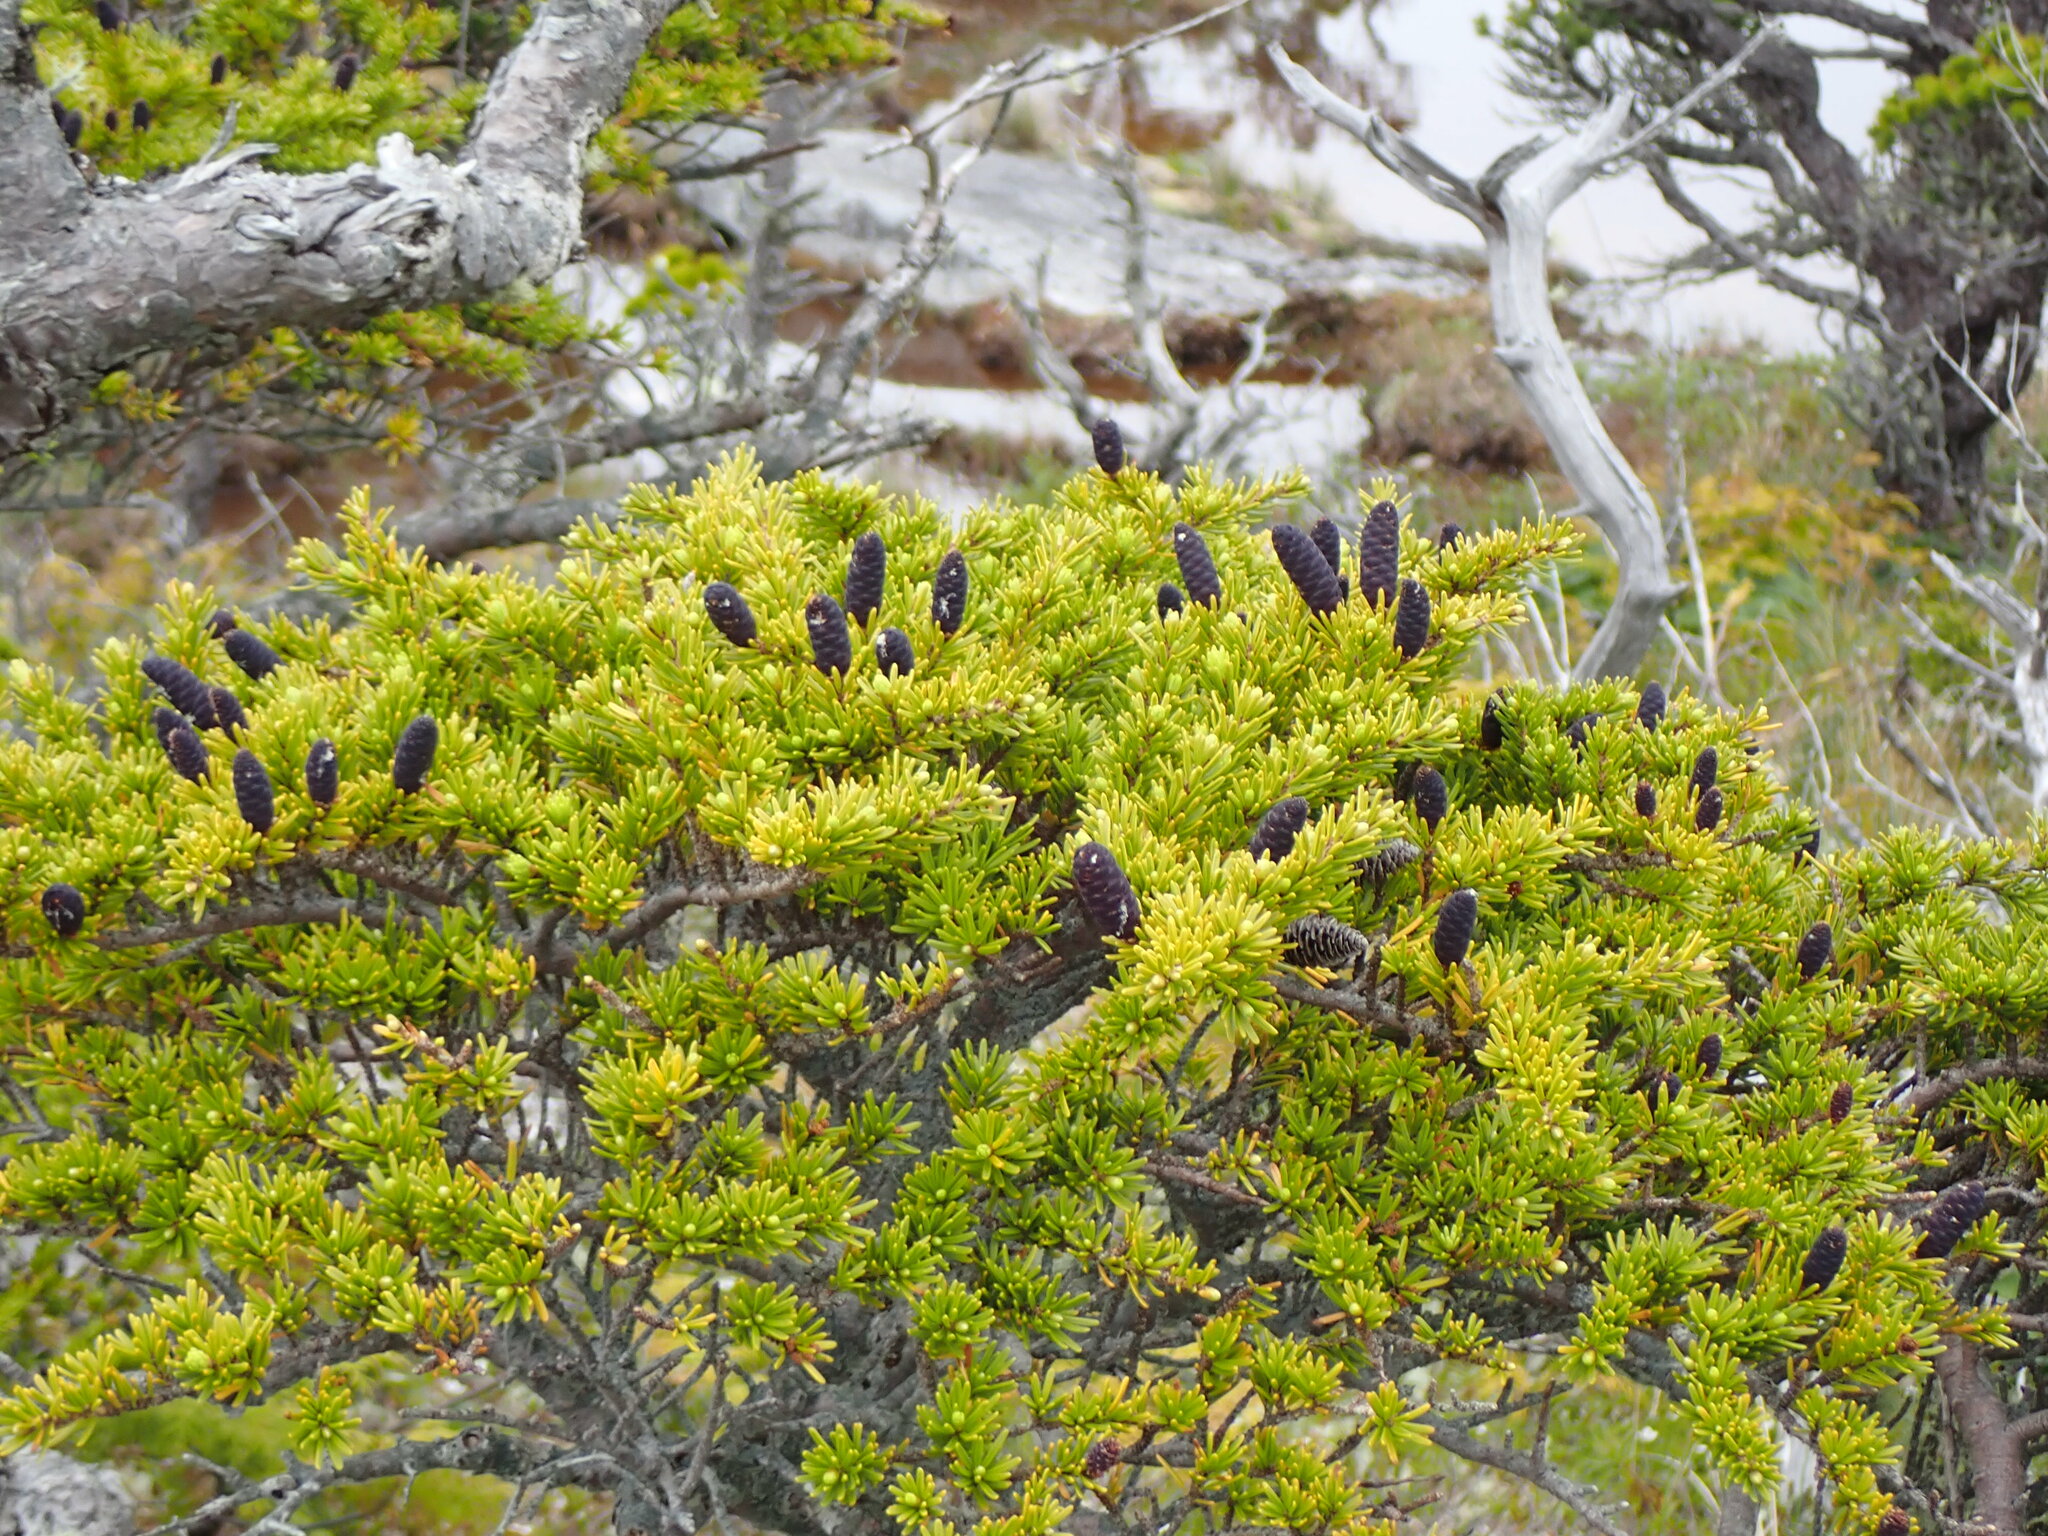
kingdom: Plantae
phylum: Tracheophyta
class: Pinopsida
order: Pinales
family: Pinaceae
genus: Tsuga
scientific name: Tsuga mertensiana
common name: Mountain hemlock
